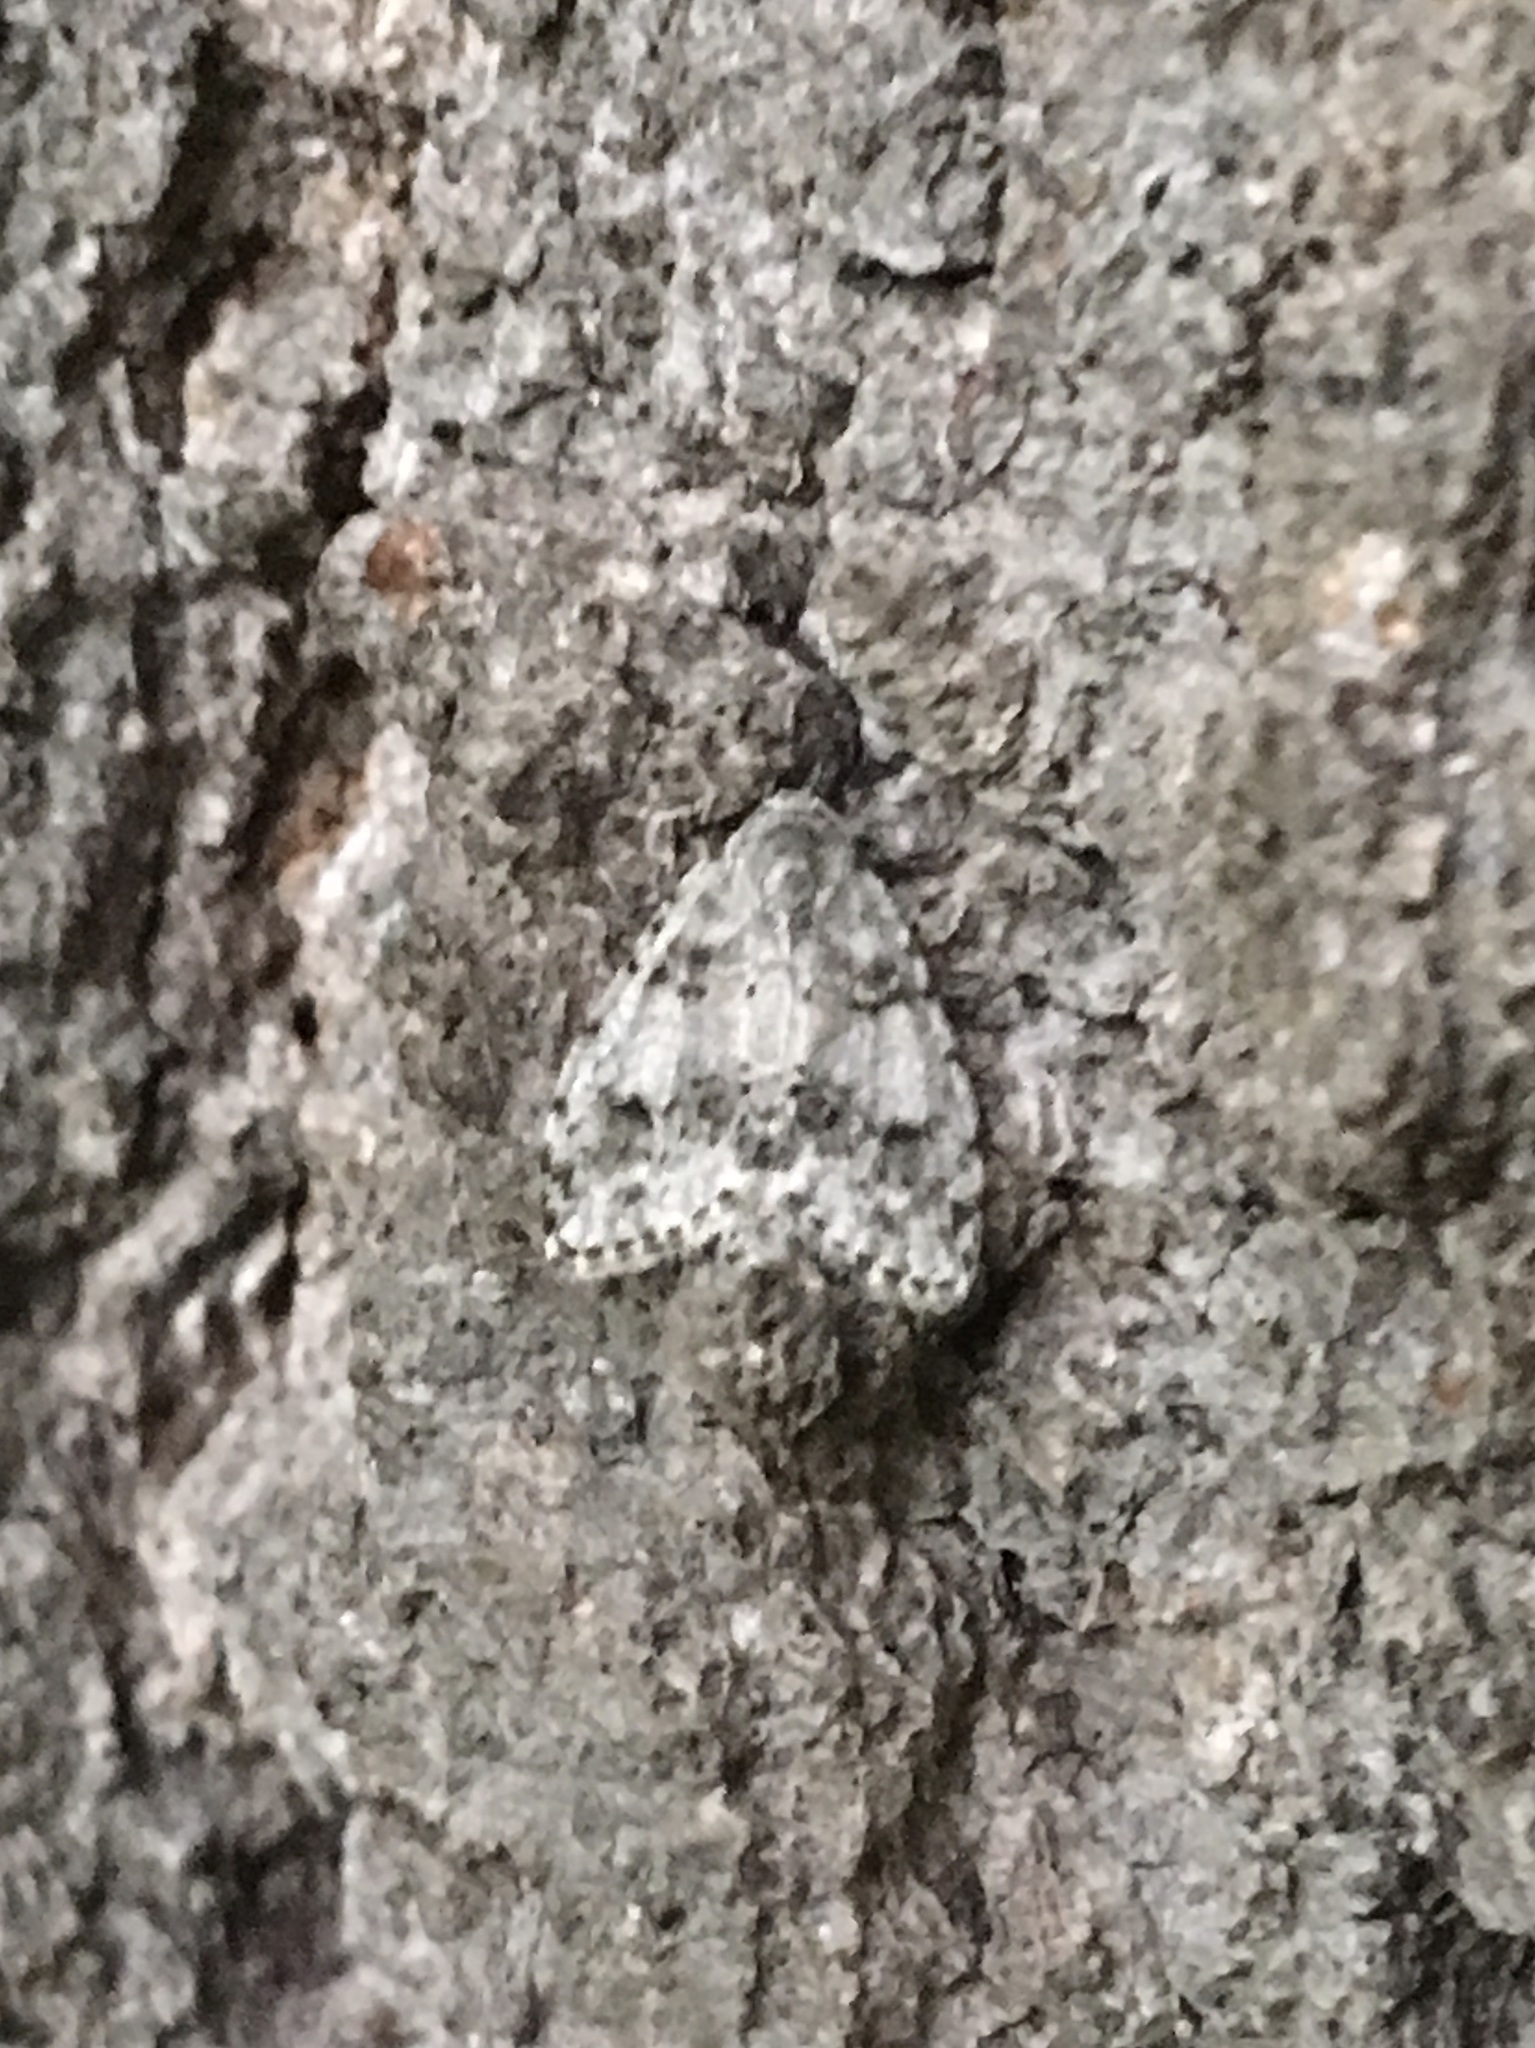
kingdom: Animalia
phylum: Arthropoda
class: Insecta
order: Lepidoptera
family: Erebidae
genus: Clemensia
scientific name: Clemensia albata
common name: Little white lichen moth
